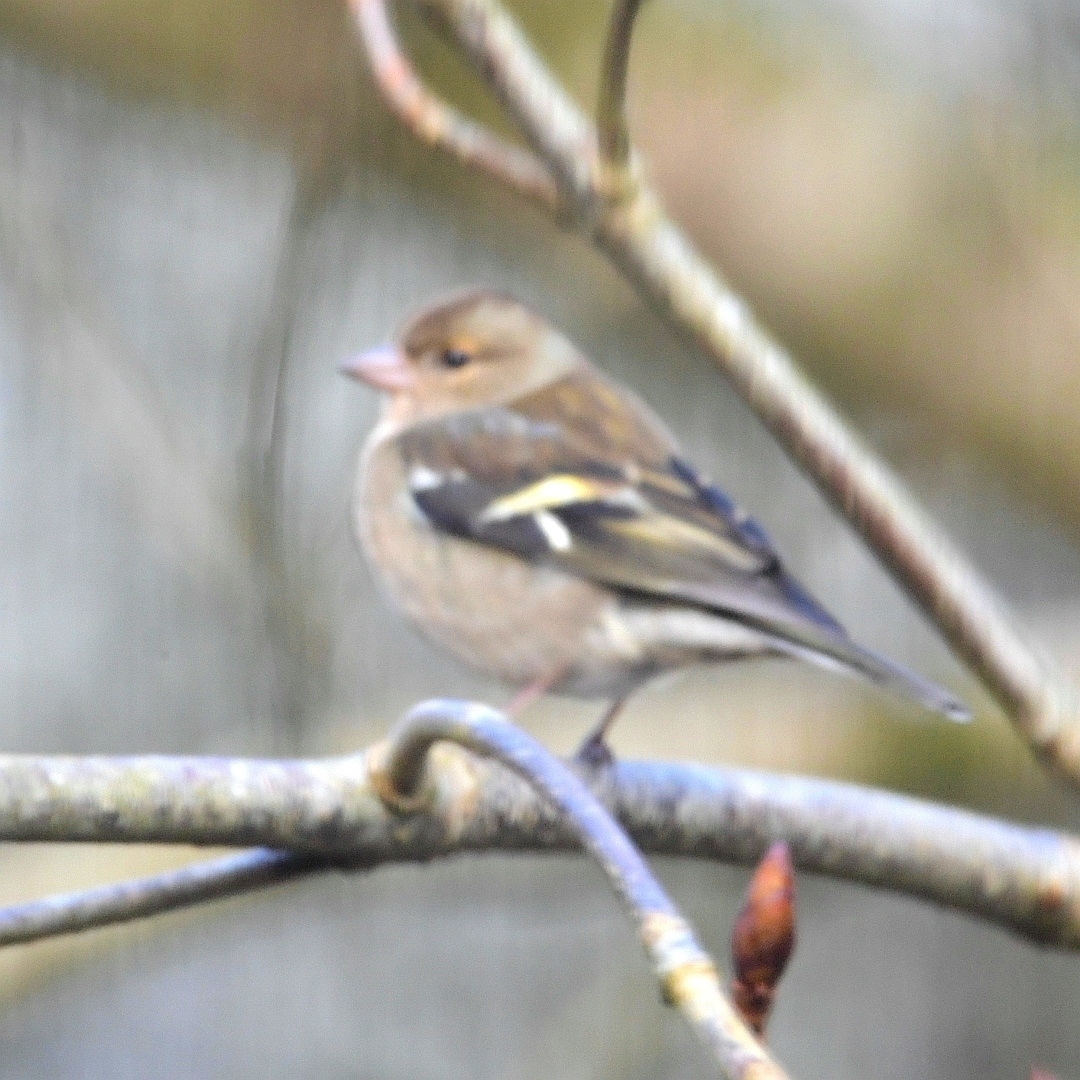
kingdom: Animalia
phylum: Chordata
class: Aves
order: Passeriformes
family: Fringillidae
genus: Fringilla
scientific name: Fringilla coelebs
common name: Common chaffinch
